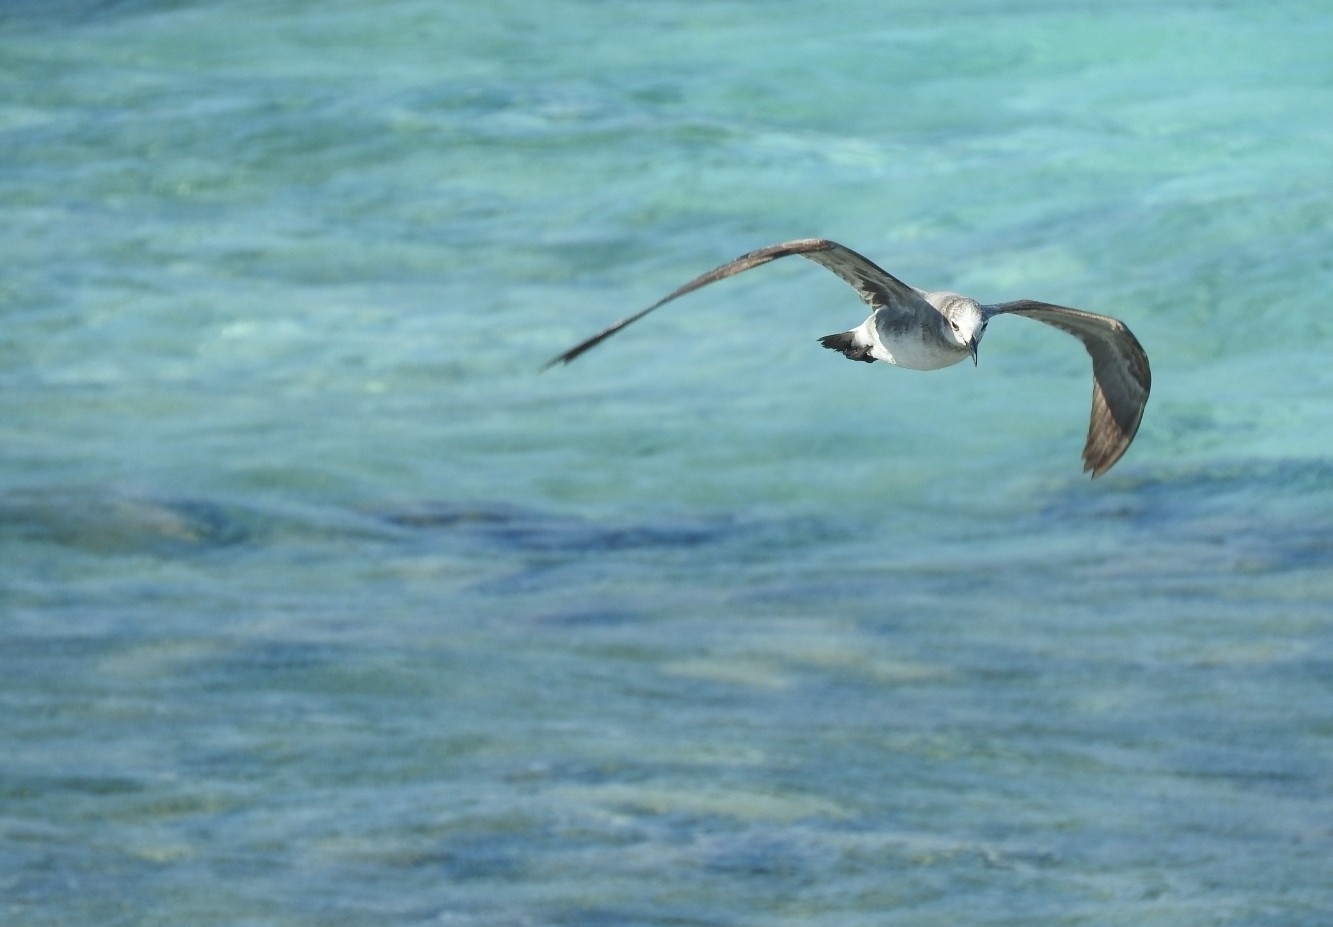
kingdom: Animalia
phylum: Chordata
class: Aves
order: Charadriiformes
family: Laridae
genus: Leucophaeus
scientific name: Leucophaeus atricilla
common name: Laughing gull
